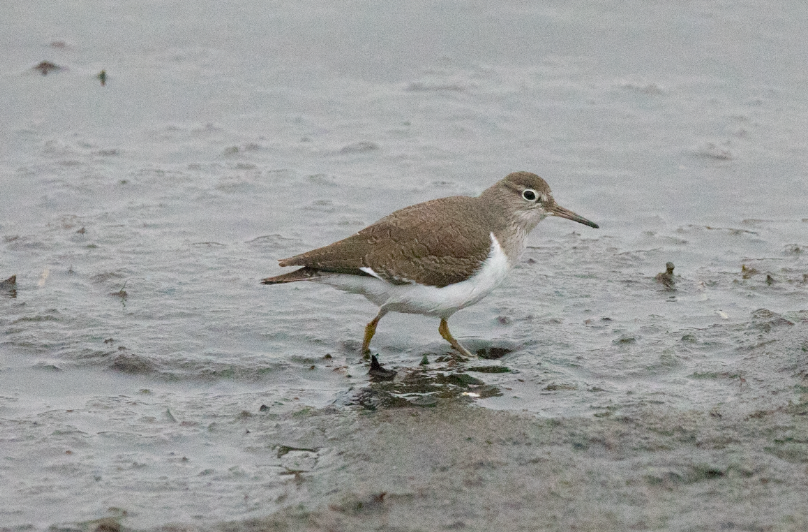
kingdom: Animalia
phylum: Chordata
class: Aves
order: Charadriiformes
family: Scolopacidae
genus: Actitis
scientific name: Actitis hypoleucos
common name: Common sandpiper
